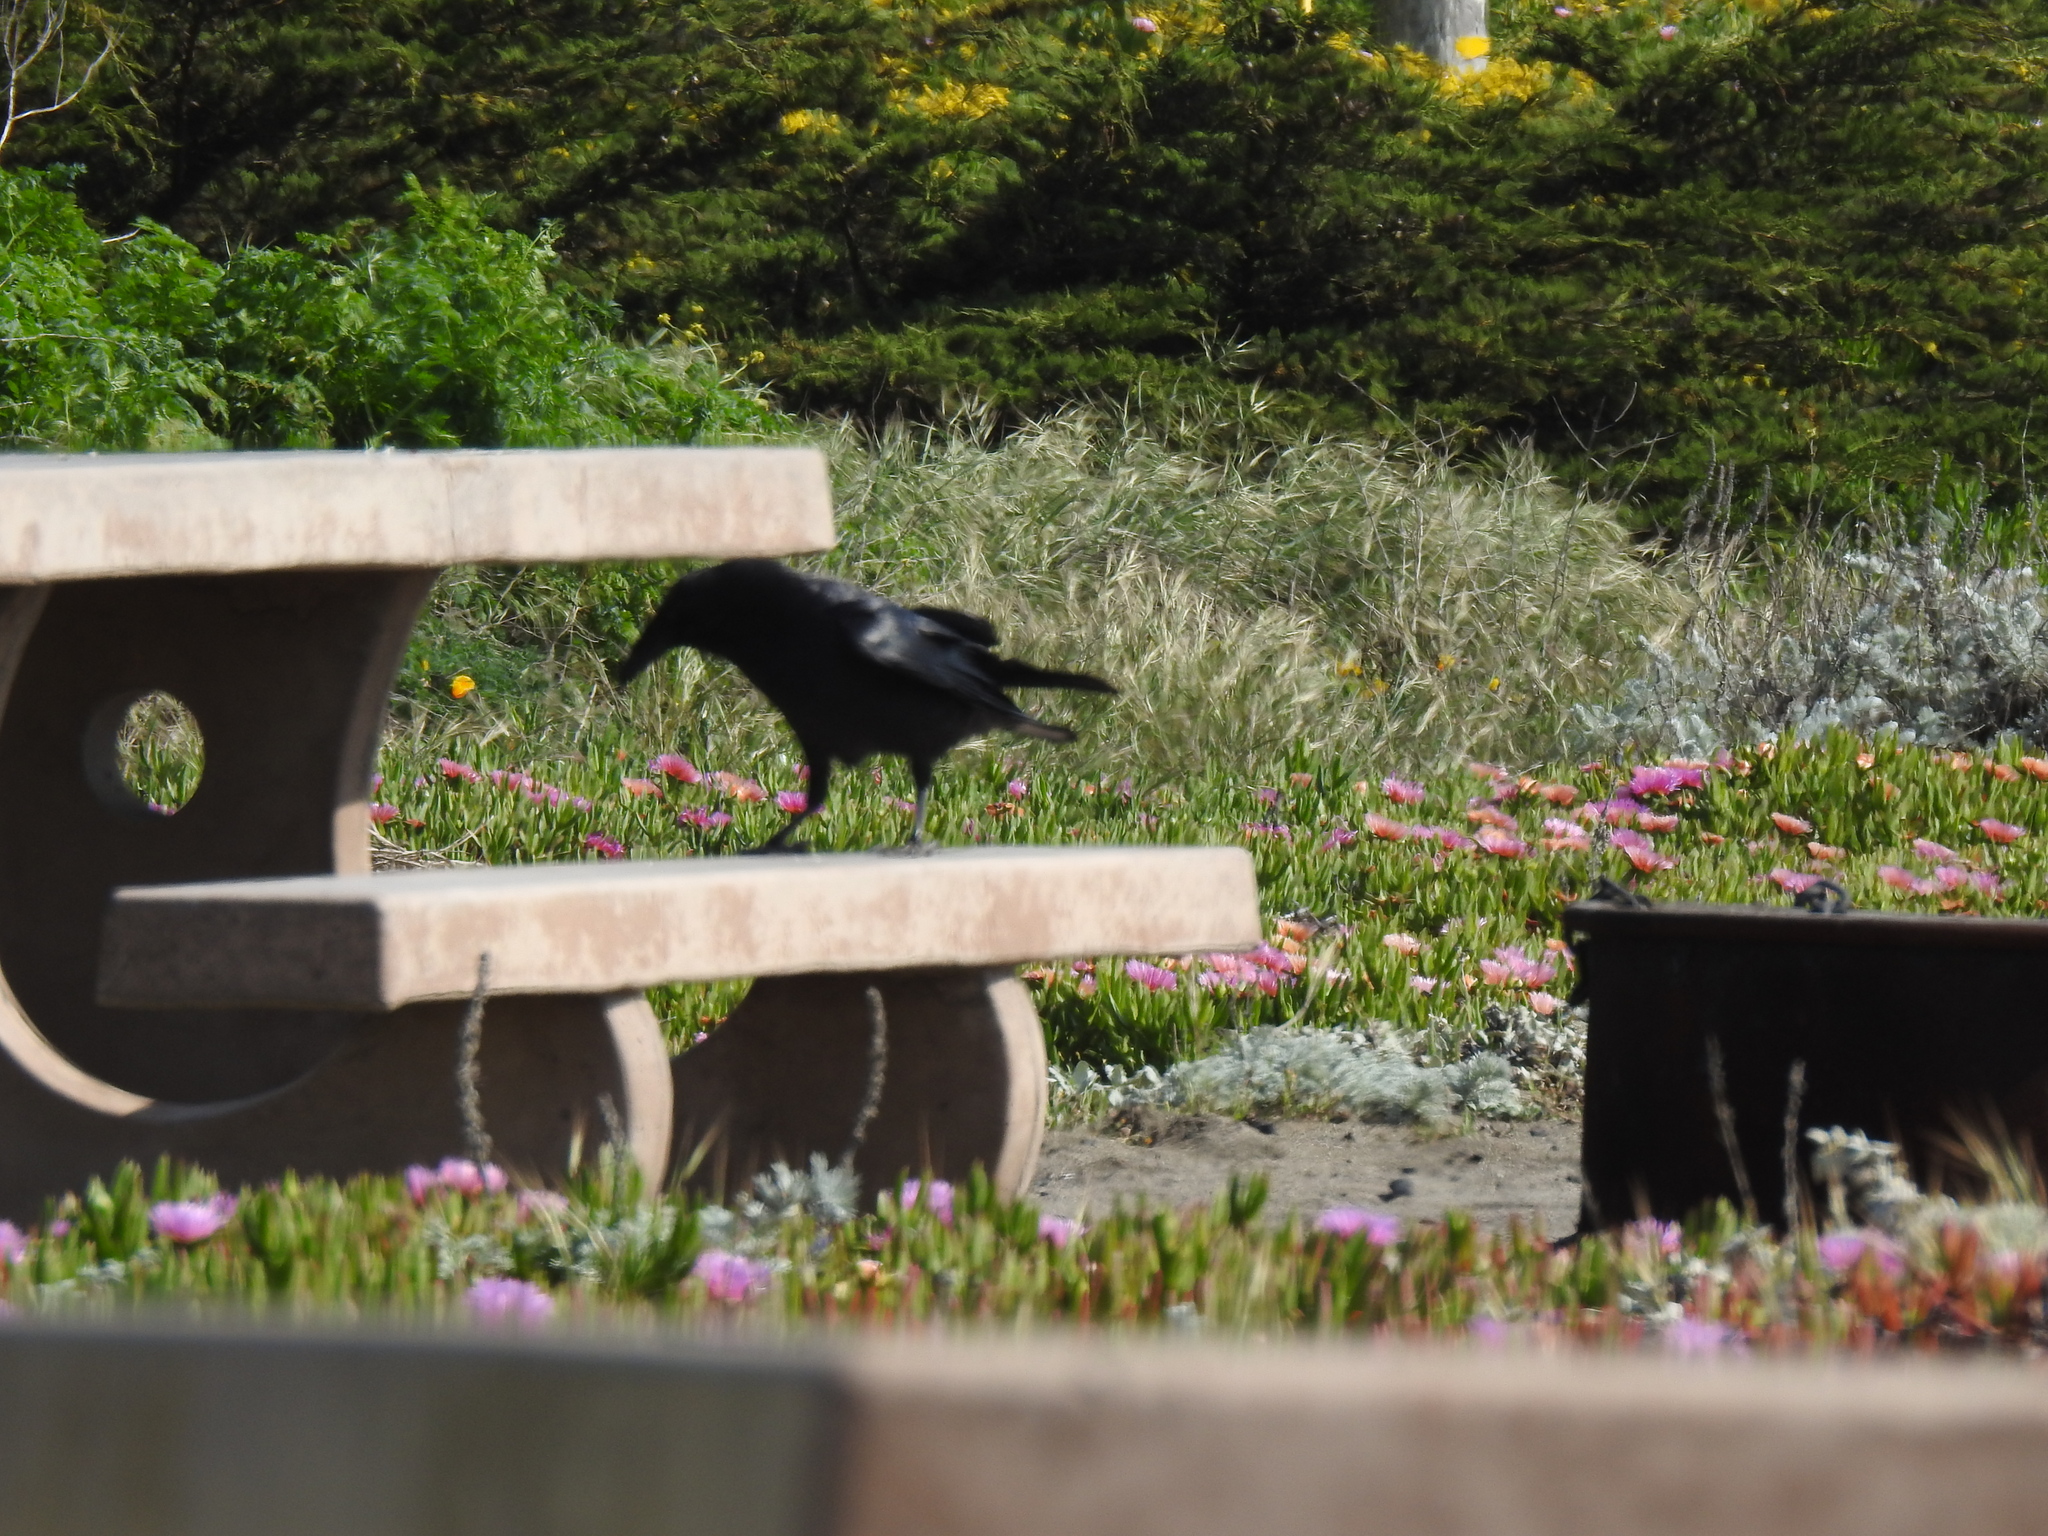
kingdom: Animalia
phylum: Chordata
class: Aves
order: Passeriformes
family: Corvidae
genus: Corvus
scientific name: Corvus corax
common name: Common raven
